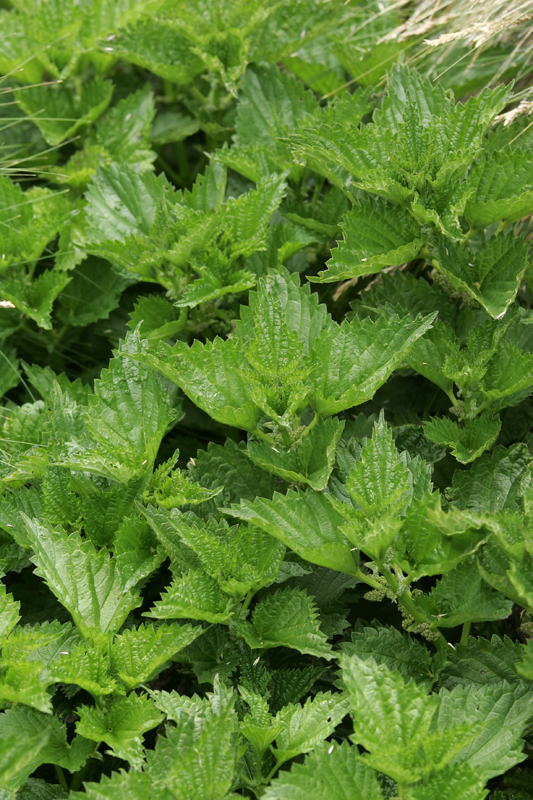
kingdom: Plantae
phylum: Tracheophyta
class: Magnoliopsida
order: Rosales
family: Urticaceae
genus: Urtica
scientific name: Urtica australis
